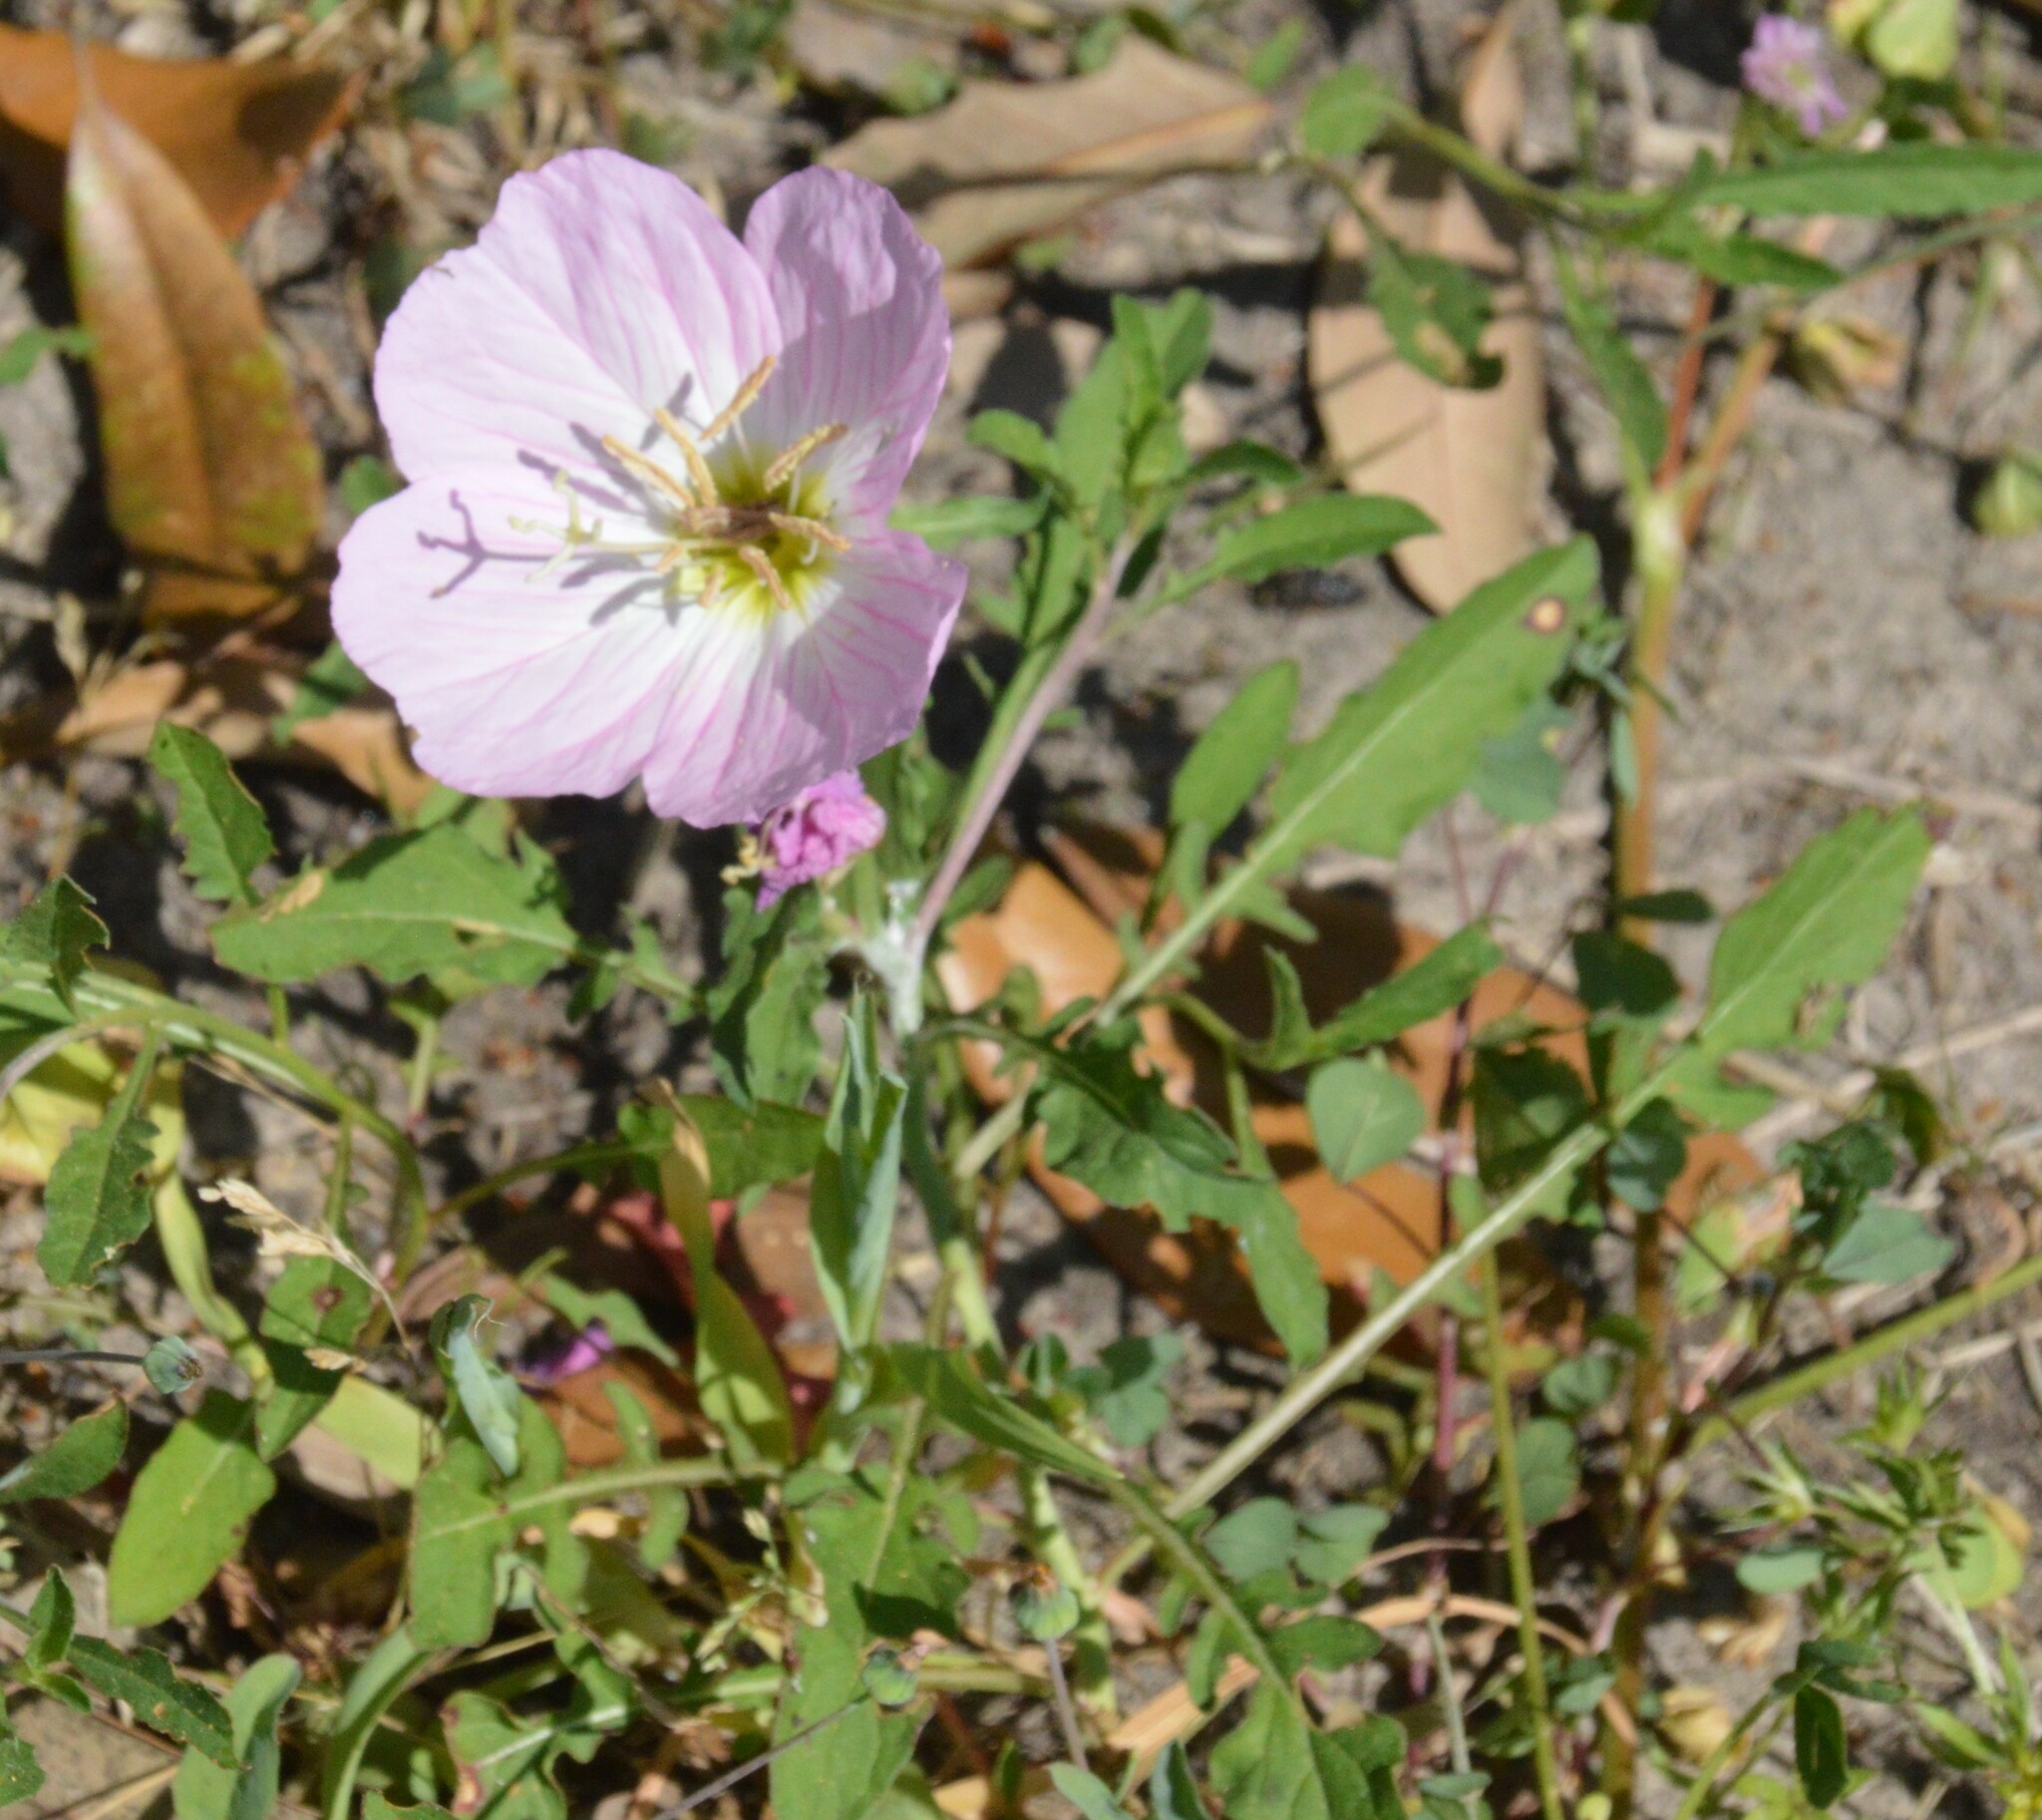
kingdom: Plantae
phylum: Tracheophyta
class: Magnoliopsida
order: Myrtales
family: Onagraceae
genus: Oenothera
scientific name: Oenothera speciosa
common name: White evening-primrose
